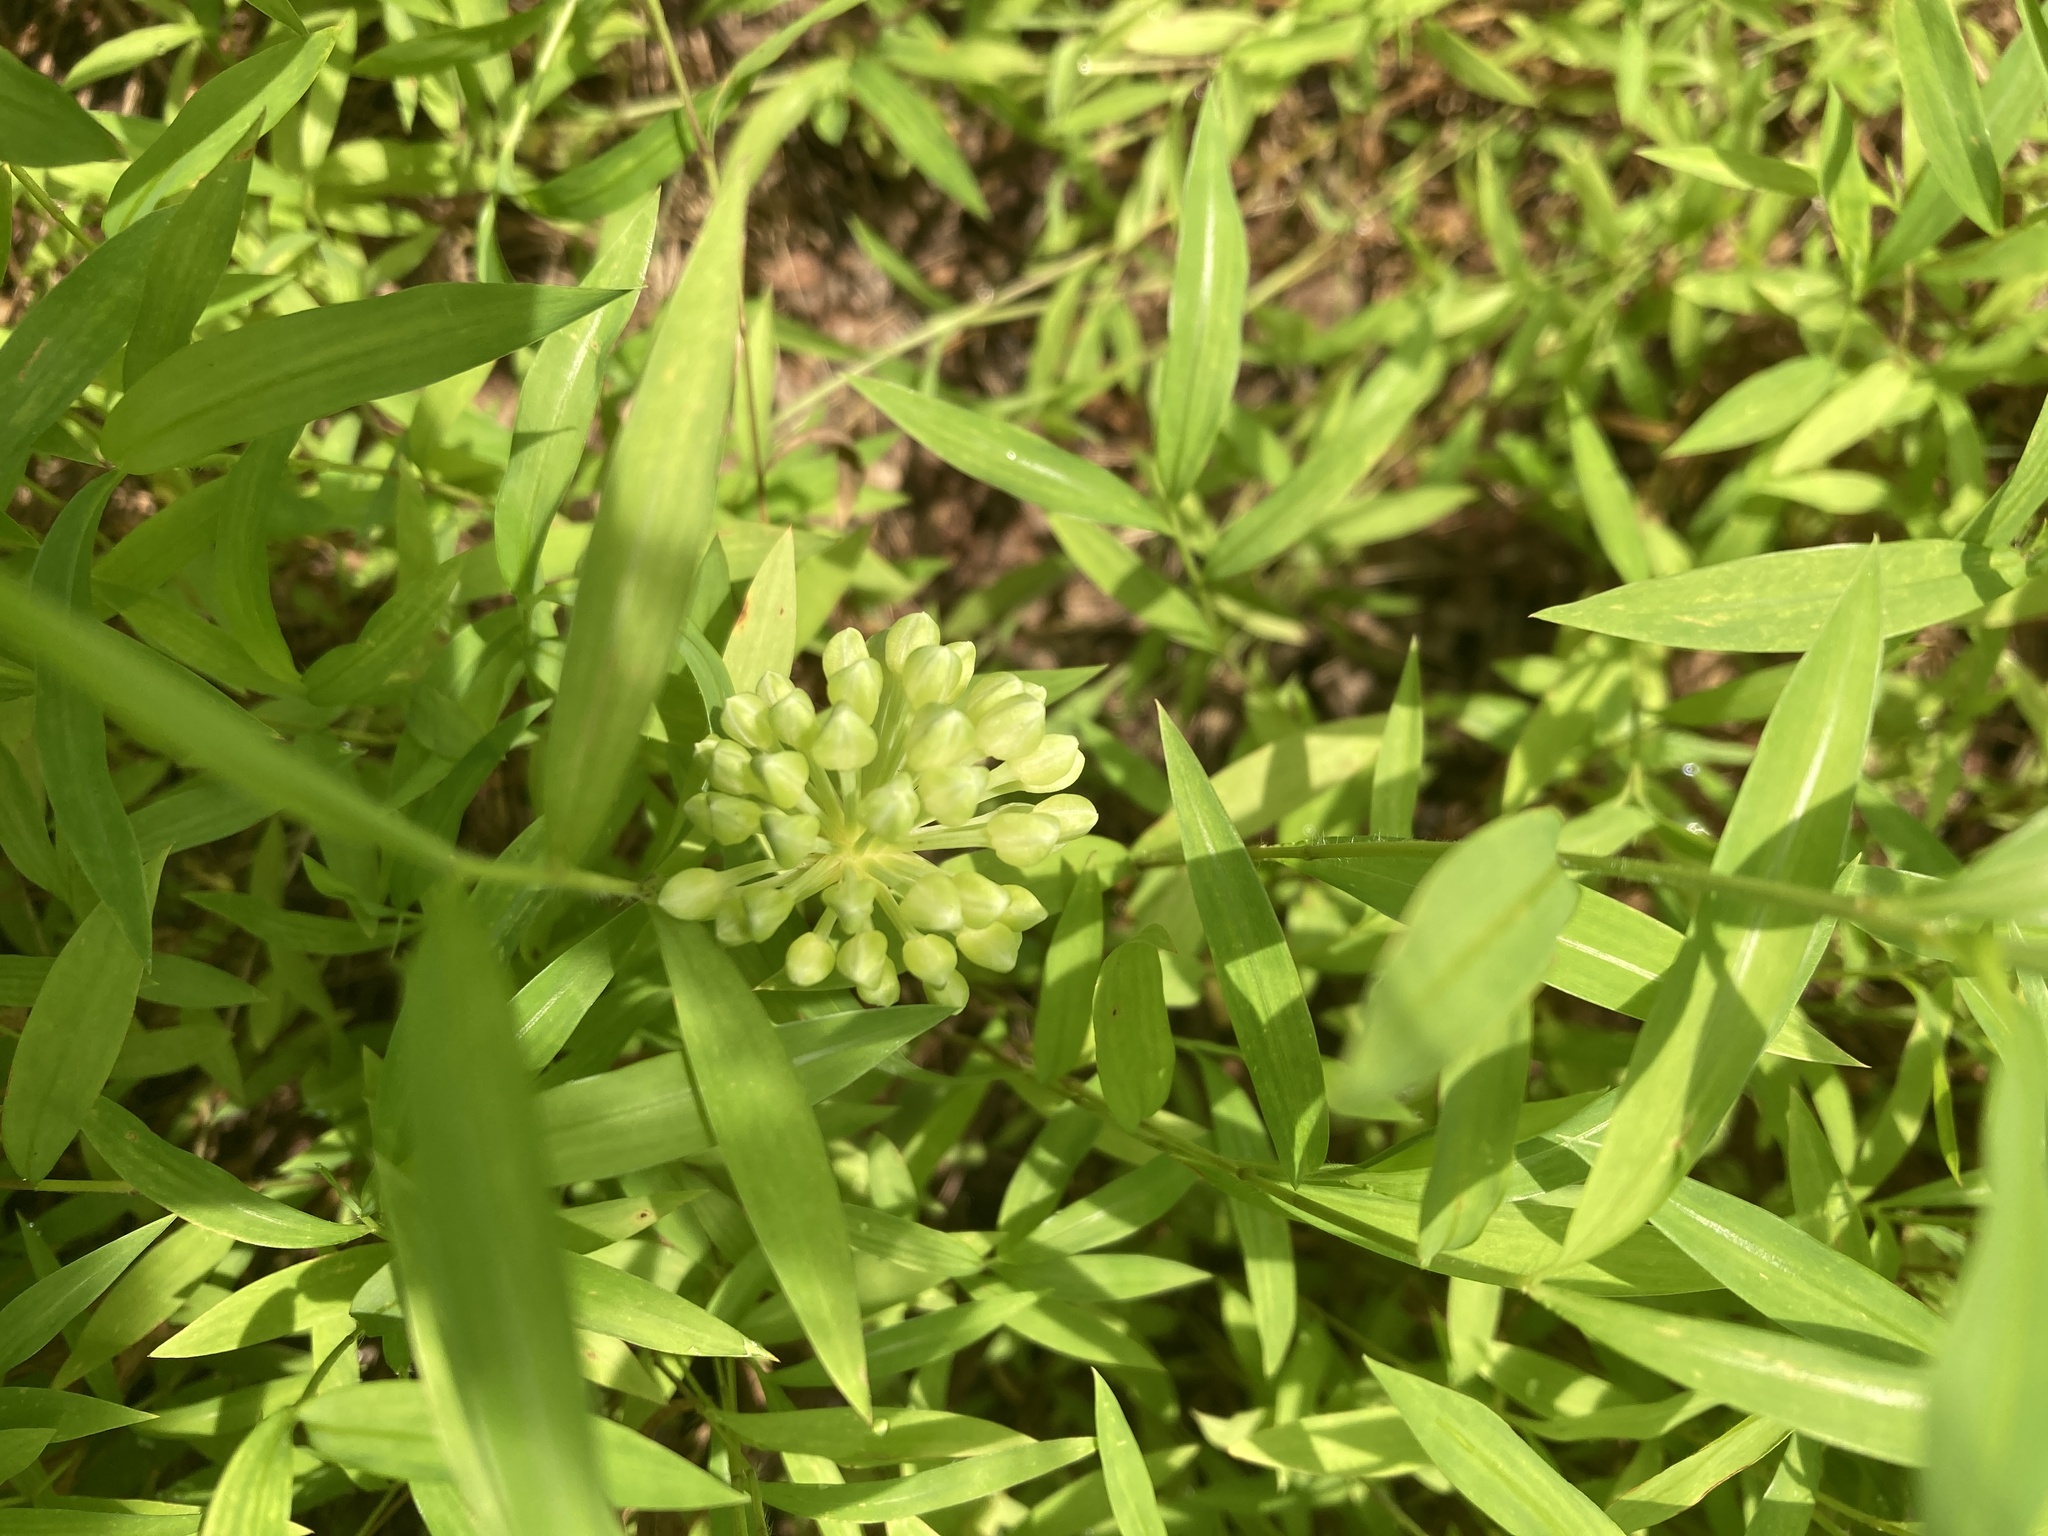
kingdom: Plantae
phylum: Tracheophyta
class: Liliopsida
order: Asparagales
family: Amaryllidaceae
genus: Allium
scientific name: Allium tricoccum
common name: Ramp
